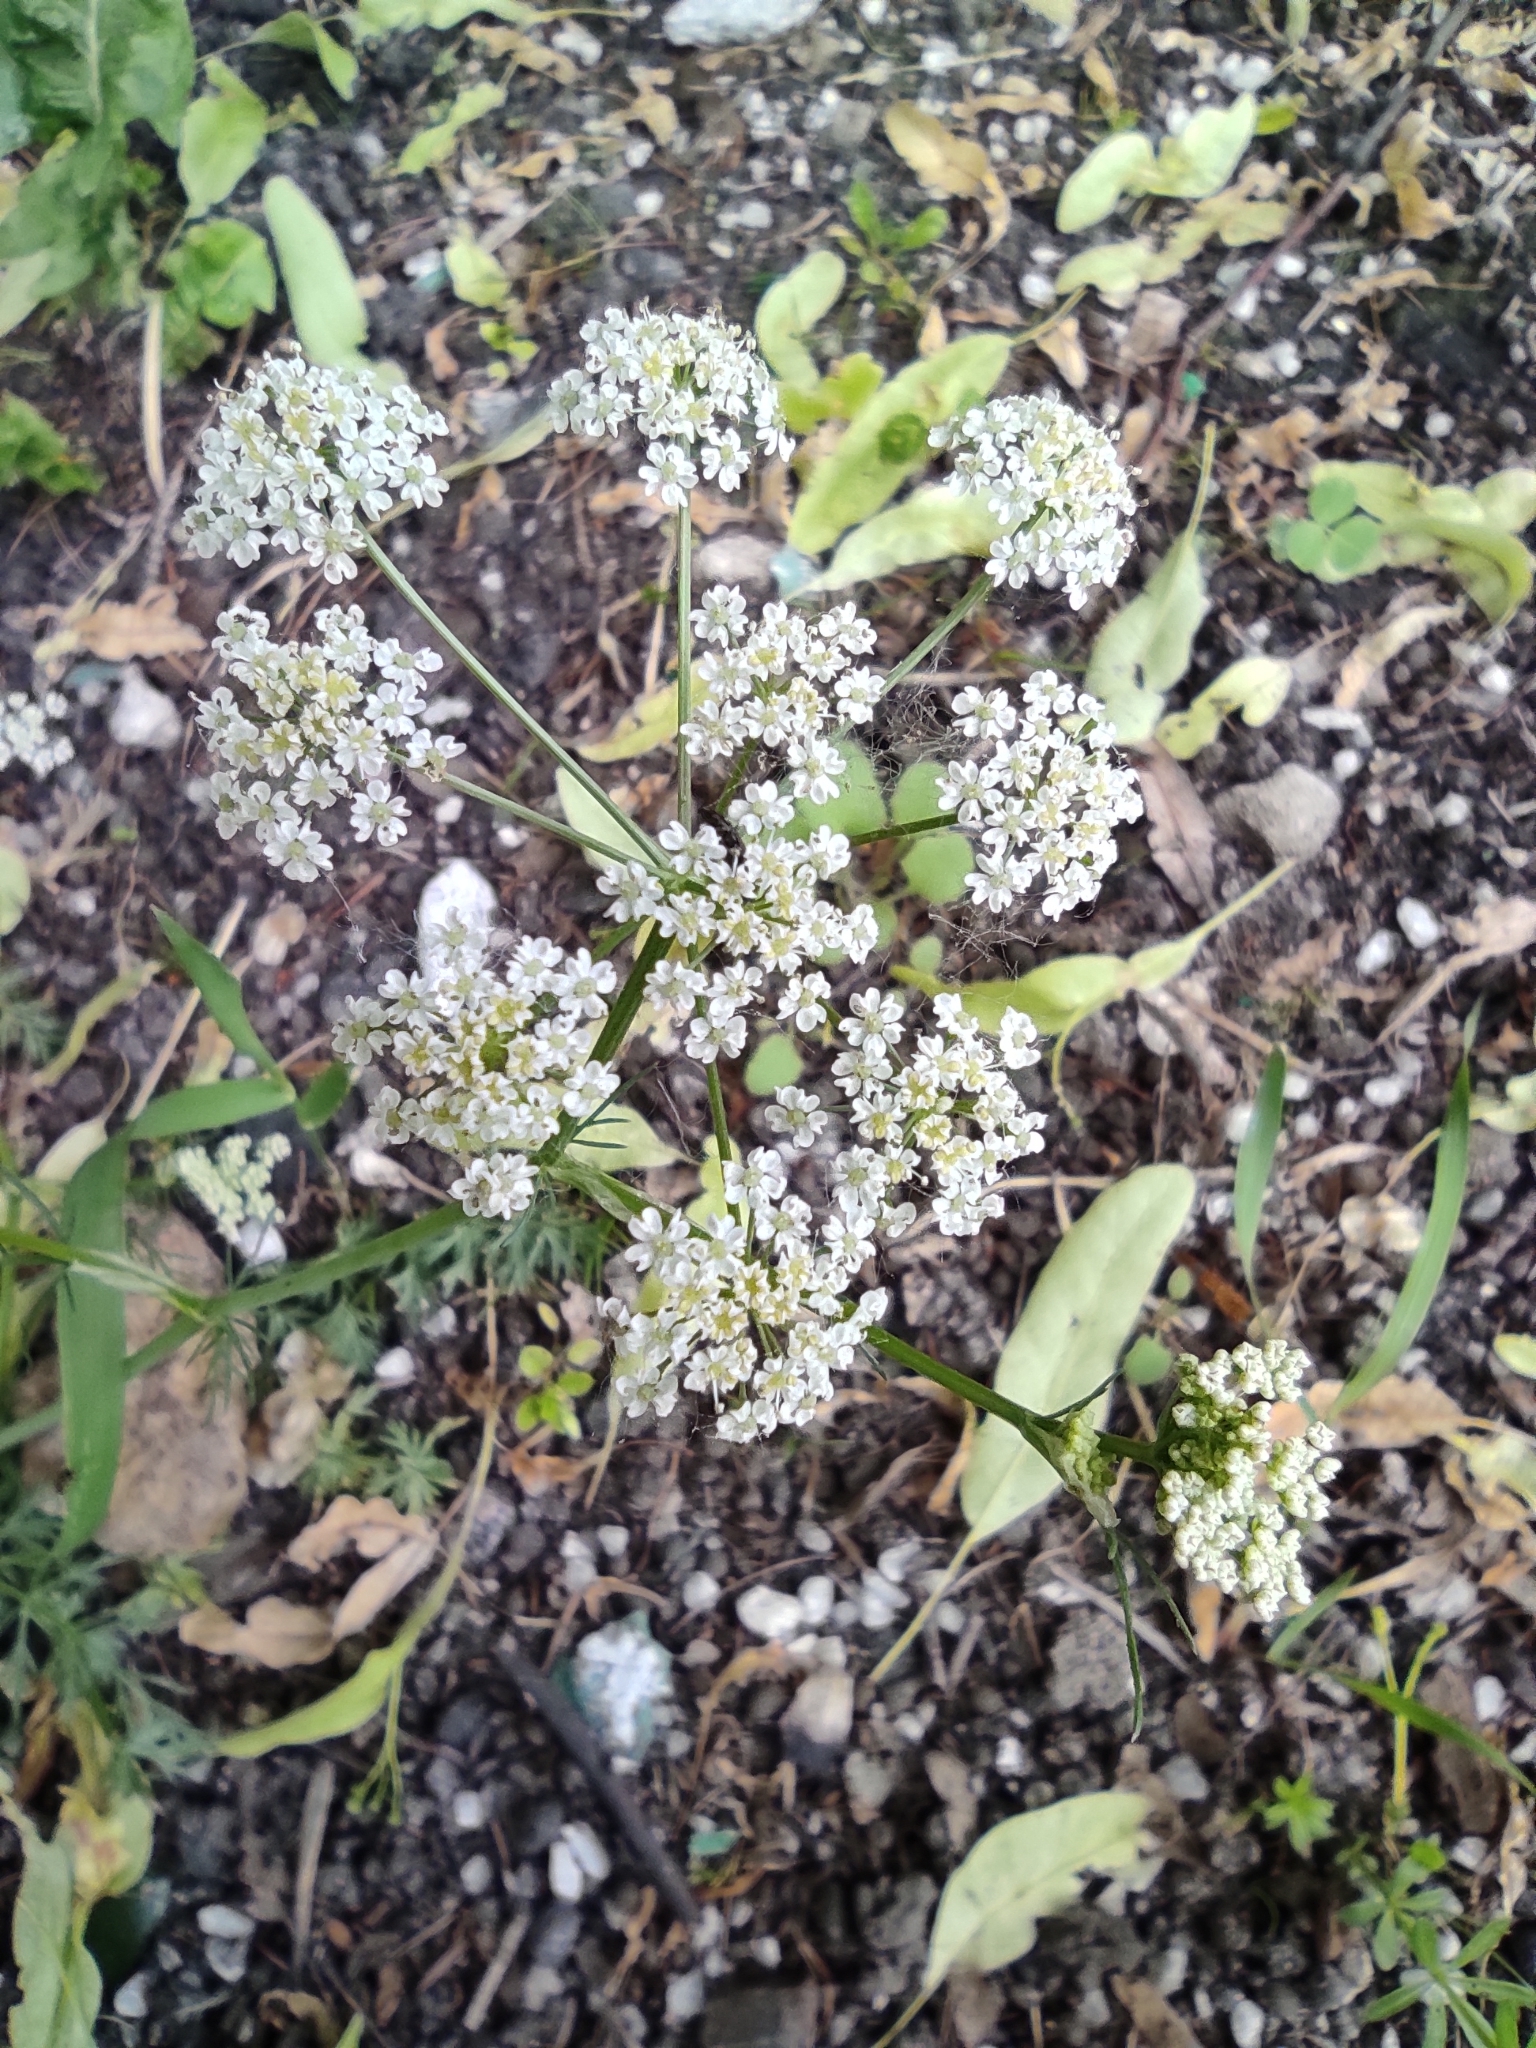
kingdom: Plantae
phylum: Tracheophyta
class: Magnoliopsida
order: Apiales
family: Apiaceae
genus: Carum
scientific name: Carum carvi
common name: Caraway
